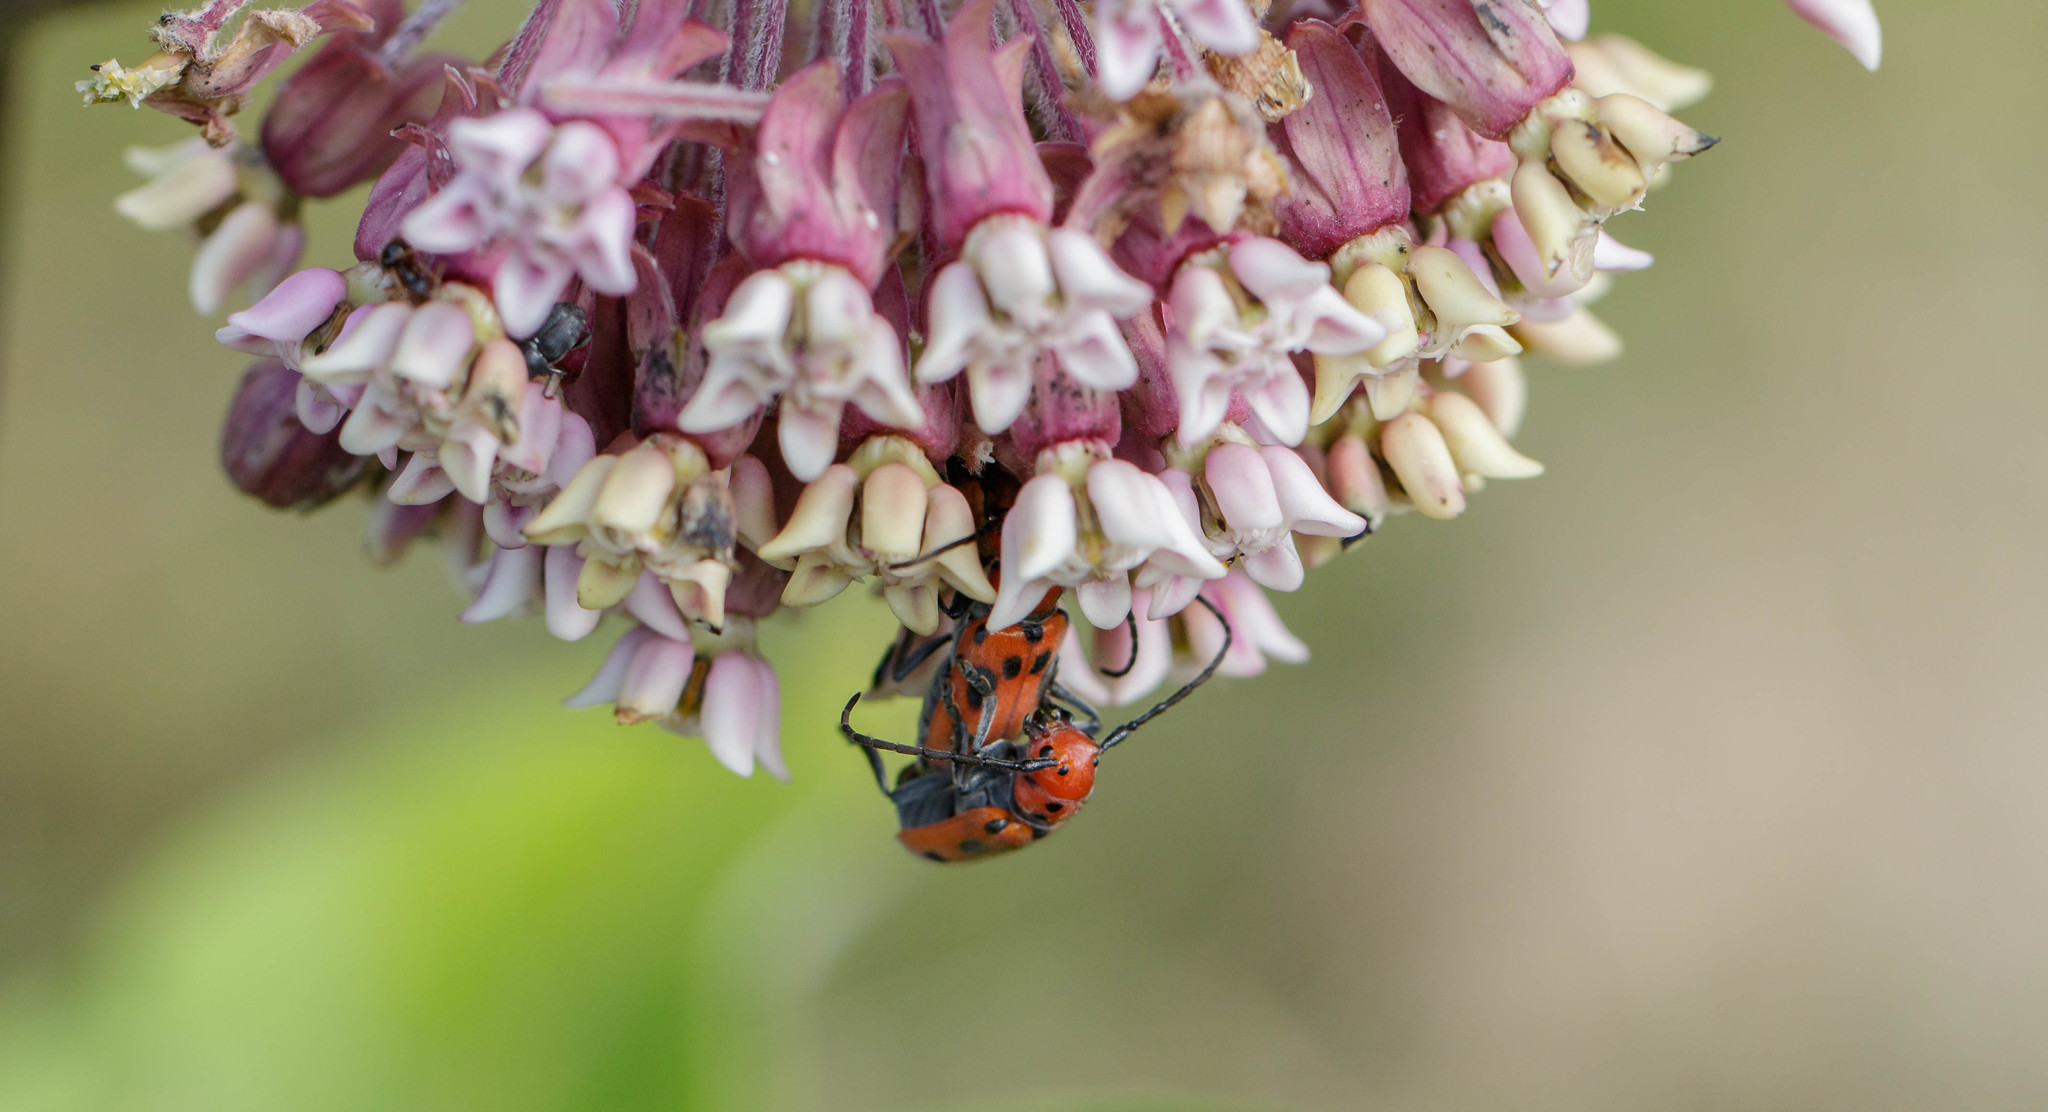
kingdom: Animalia
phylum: Arthropoda
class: Insecta
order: Coleoptera
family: Cerambycidae
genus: Tetraopes
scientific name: Tetraopes tetrophthalmus
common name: Red milkweed beetle
